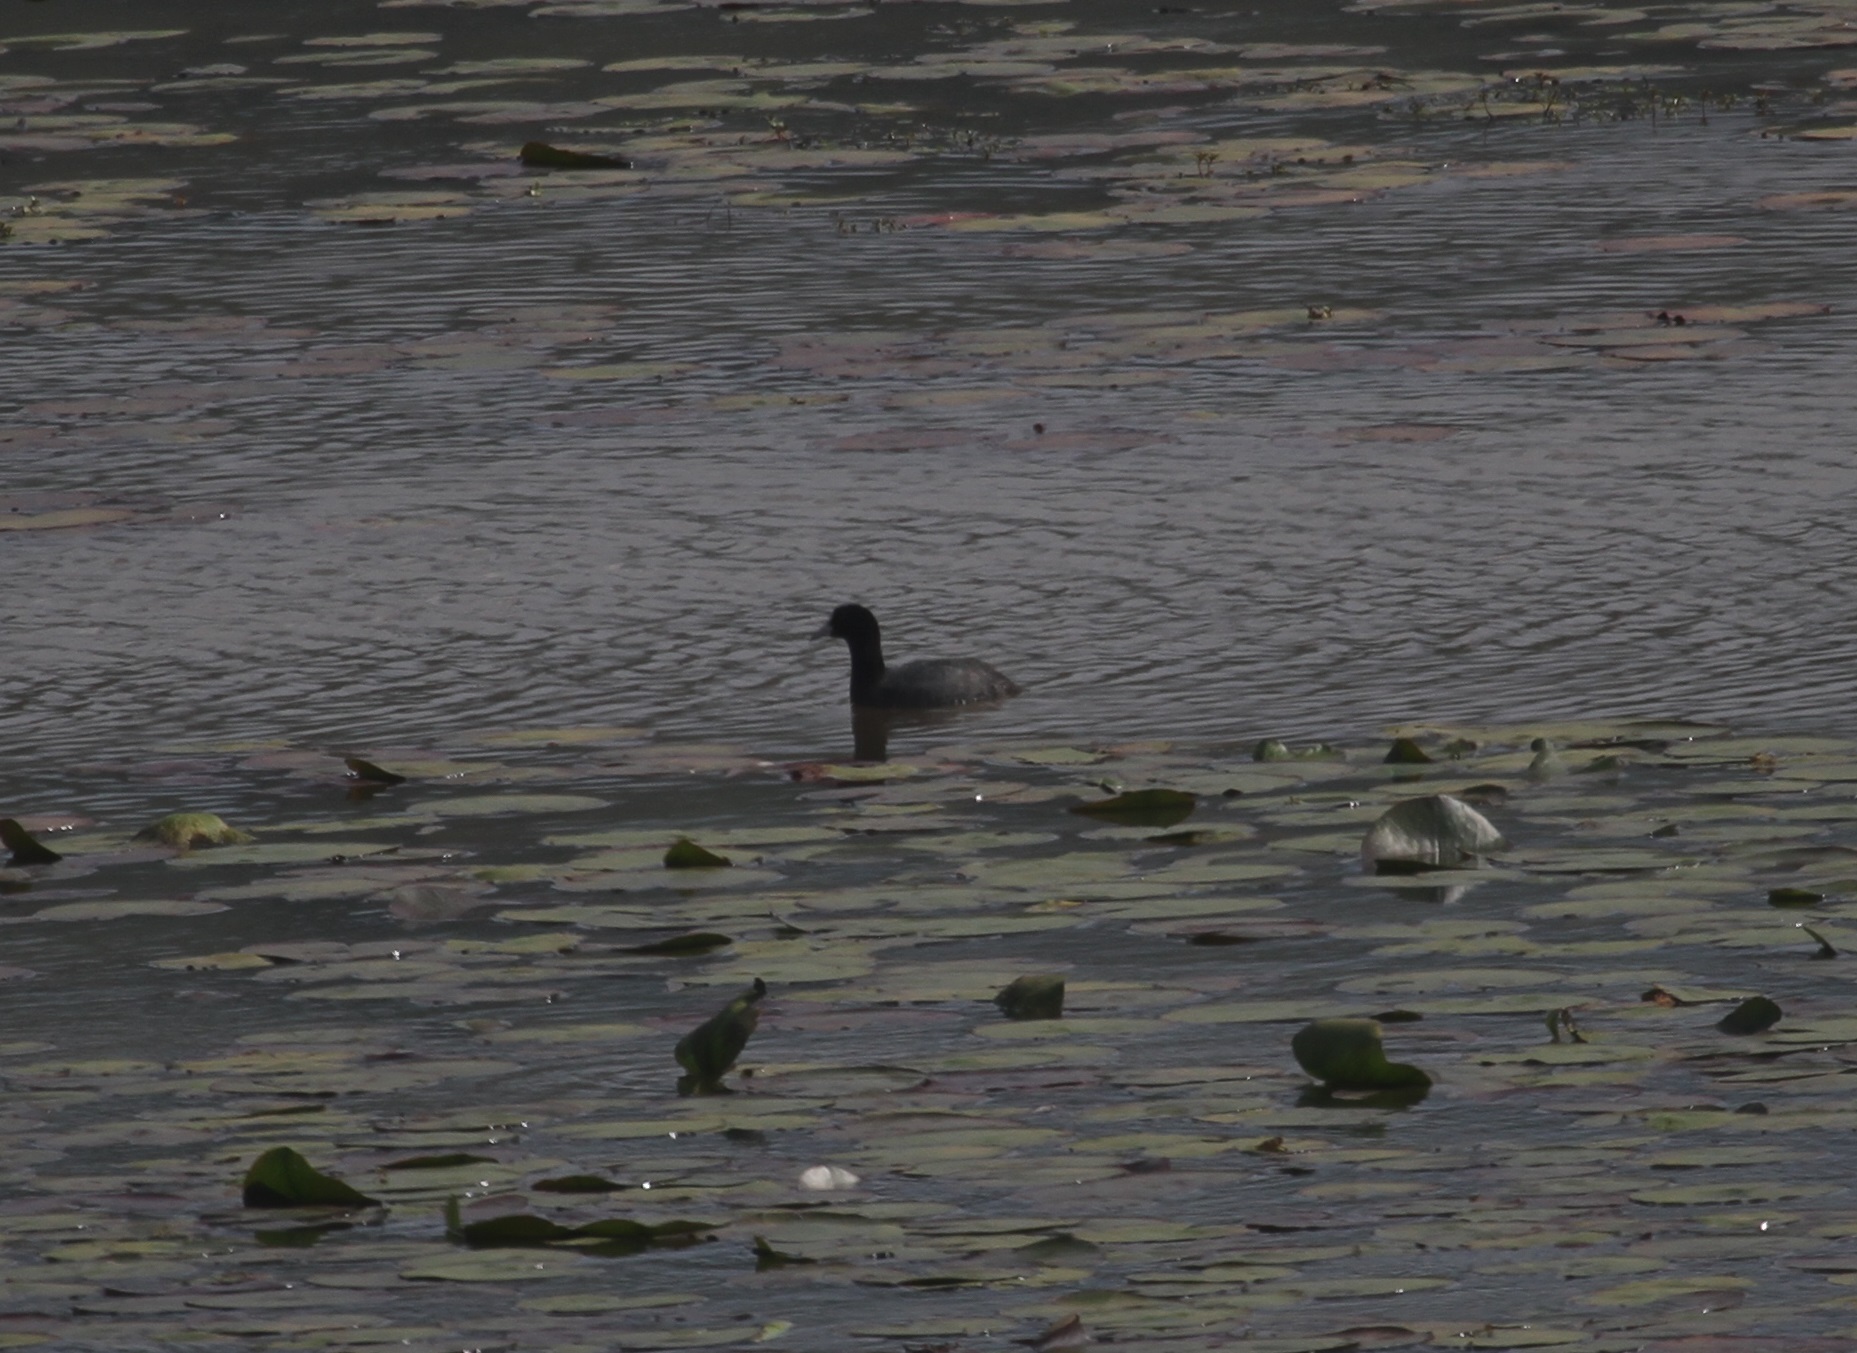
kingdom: Animalia
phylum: Chordata
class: Aves
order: Gruiformes
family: Rallidae
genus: Fulica
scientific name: Fulica atra
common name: Eurasian coot
